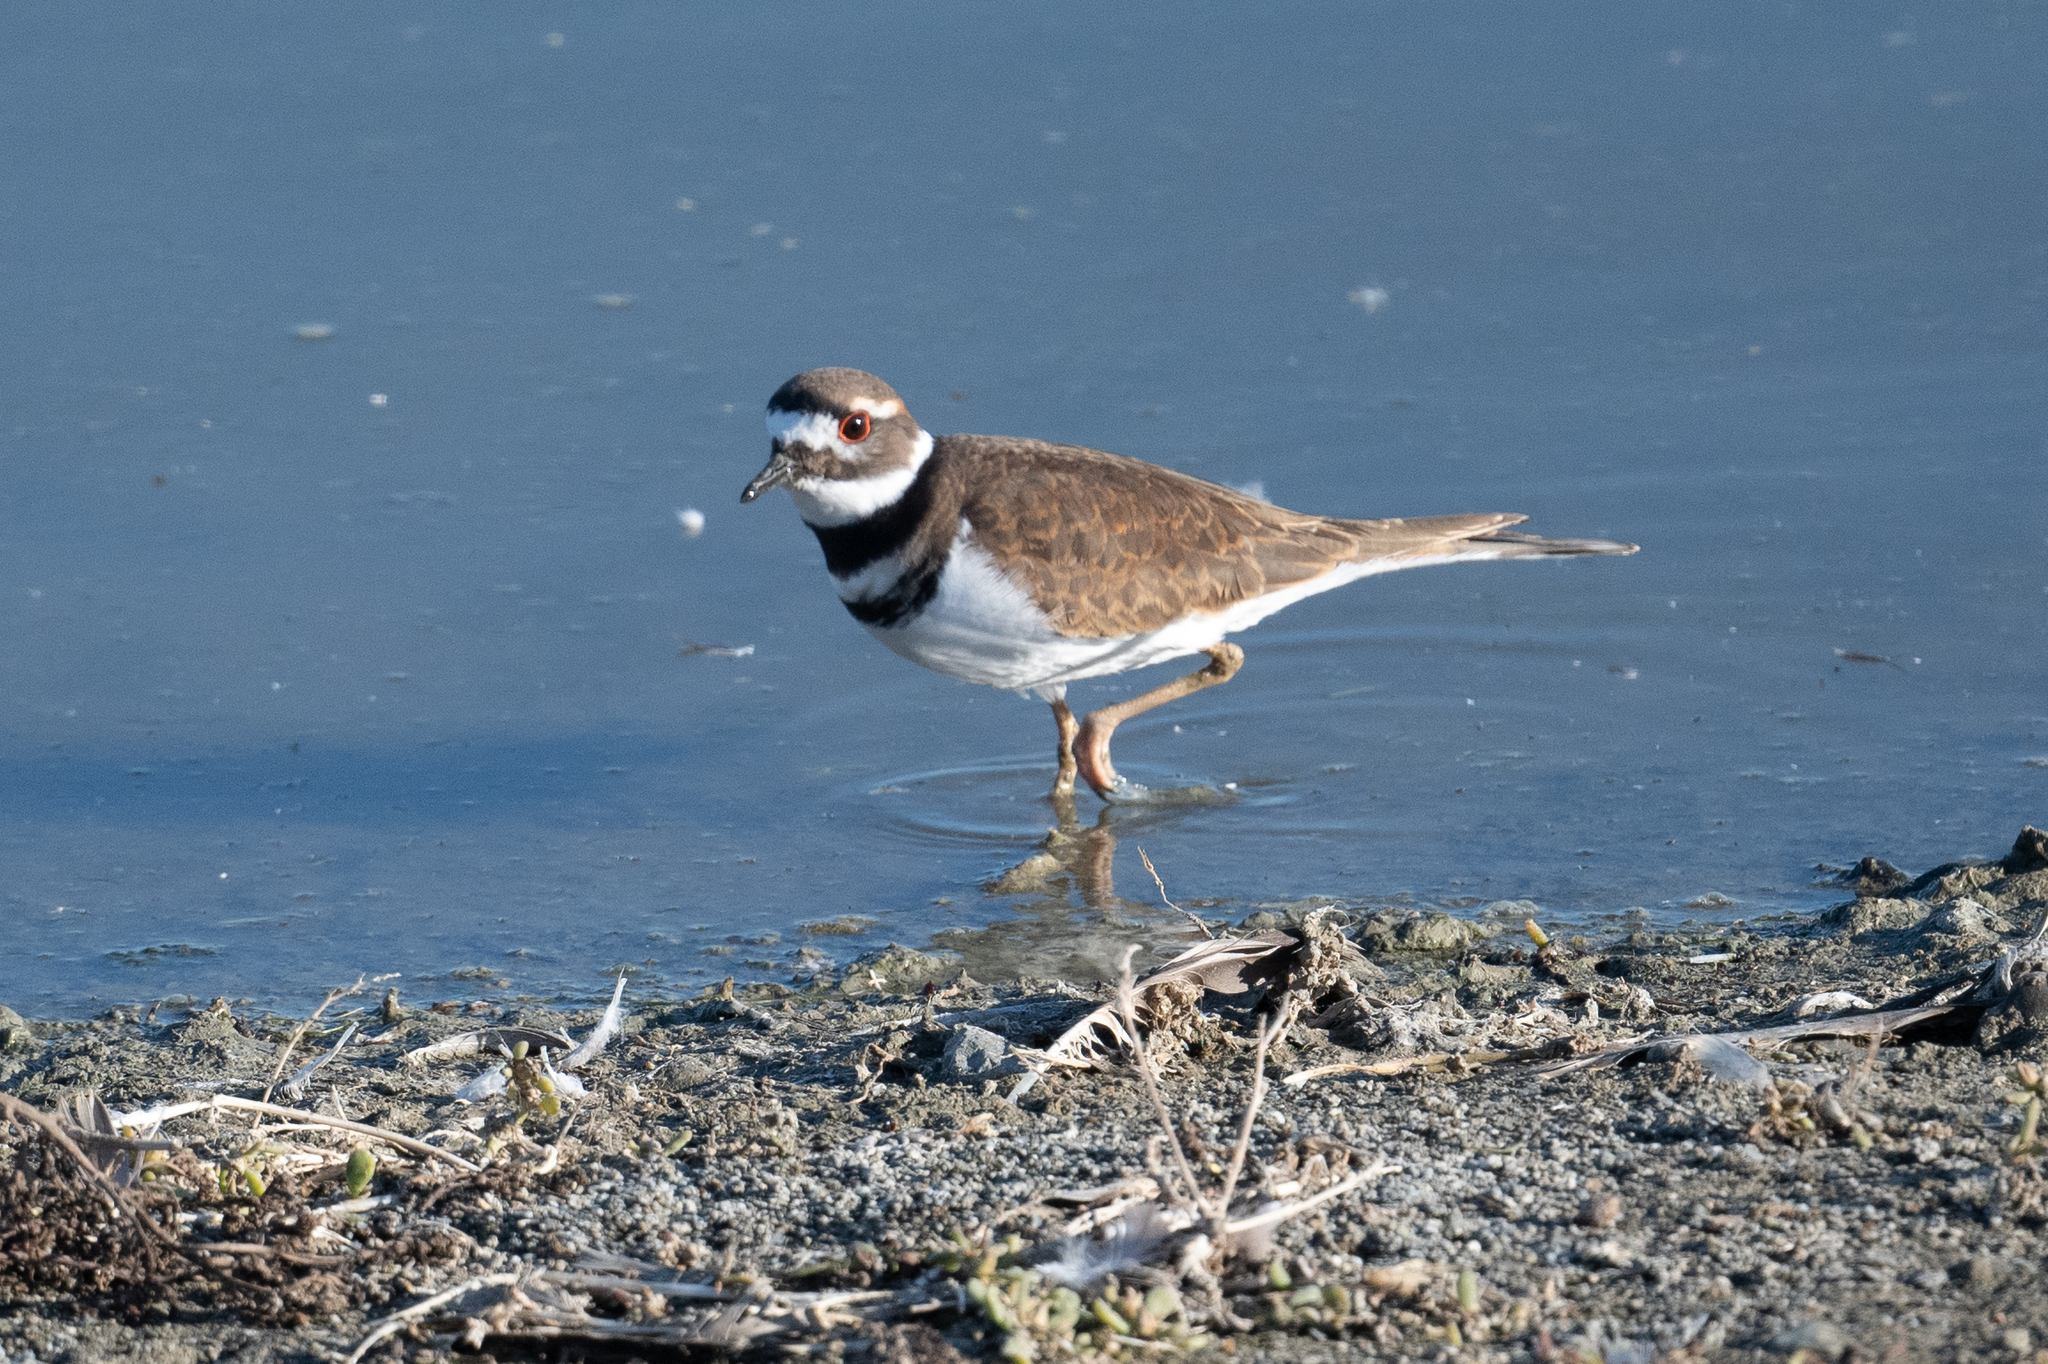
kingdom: Animalia
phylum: Chordata
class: Aves
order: Charadriiformes
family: Charadriidae
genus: Charadrius
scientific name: Charadrius vociferus
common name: Killdeer
